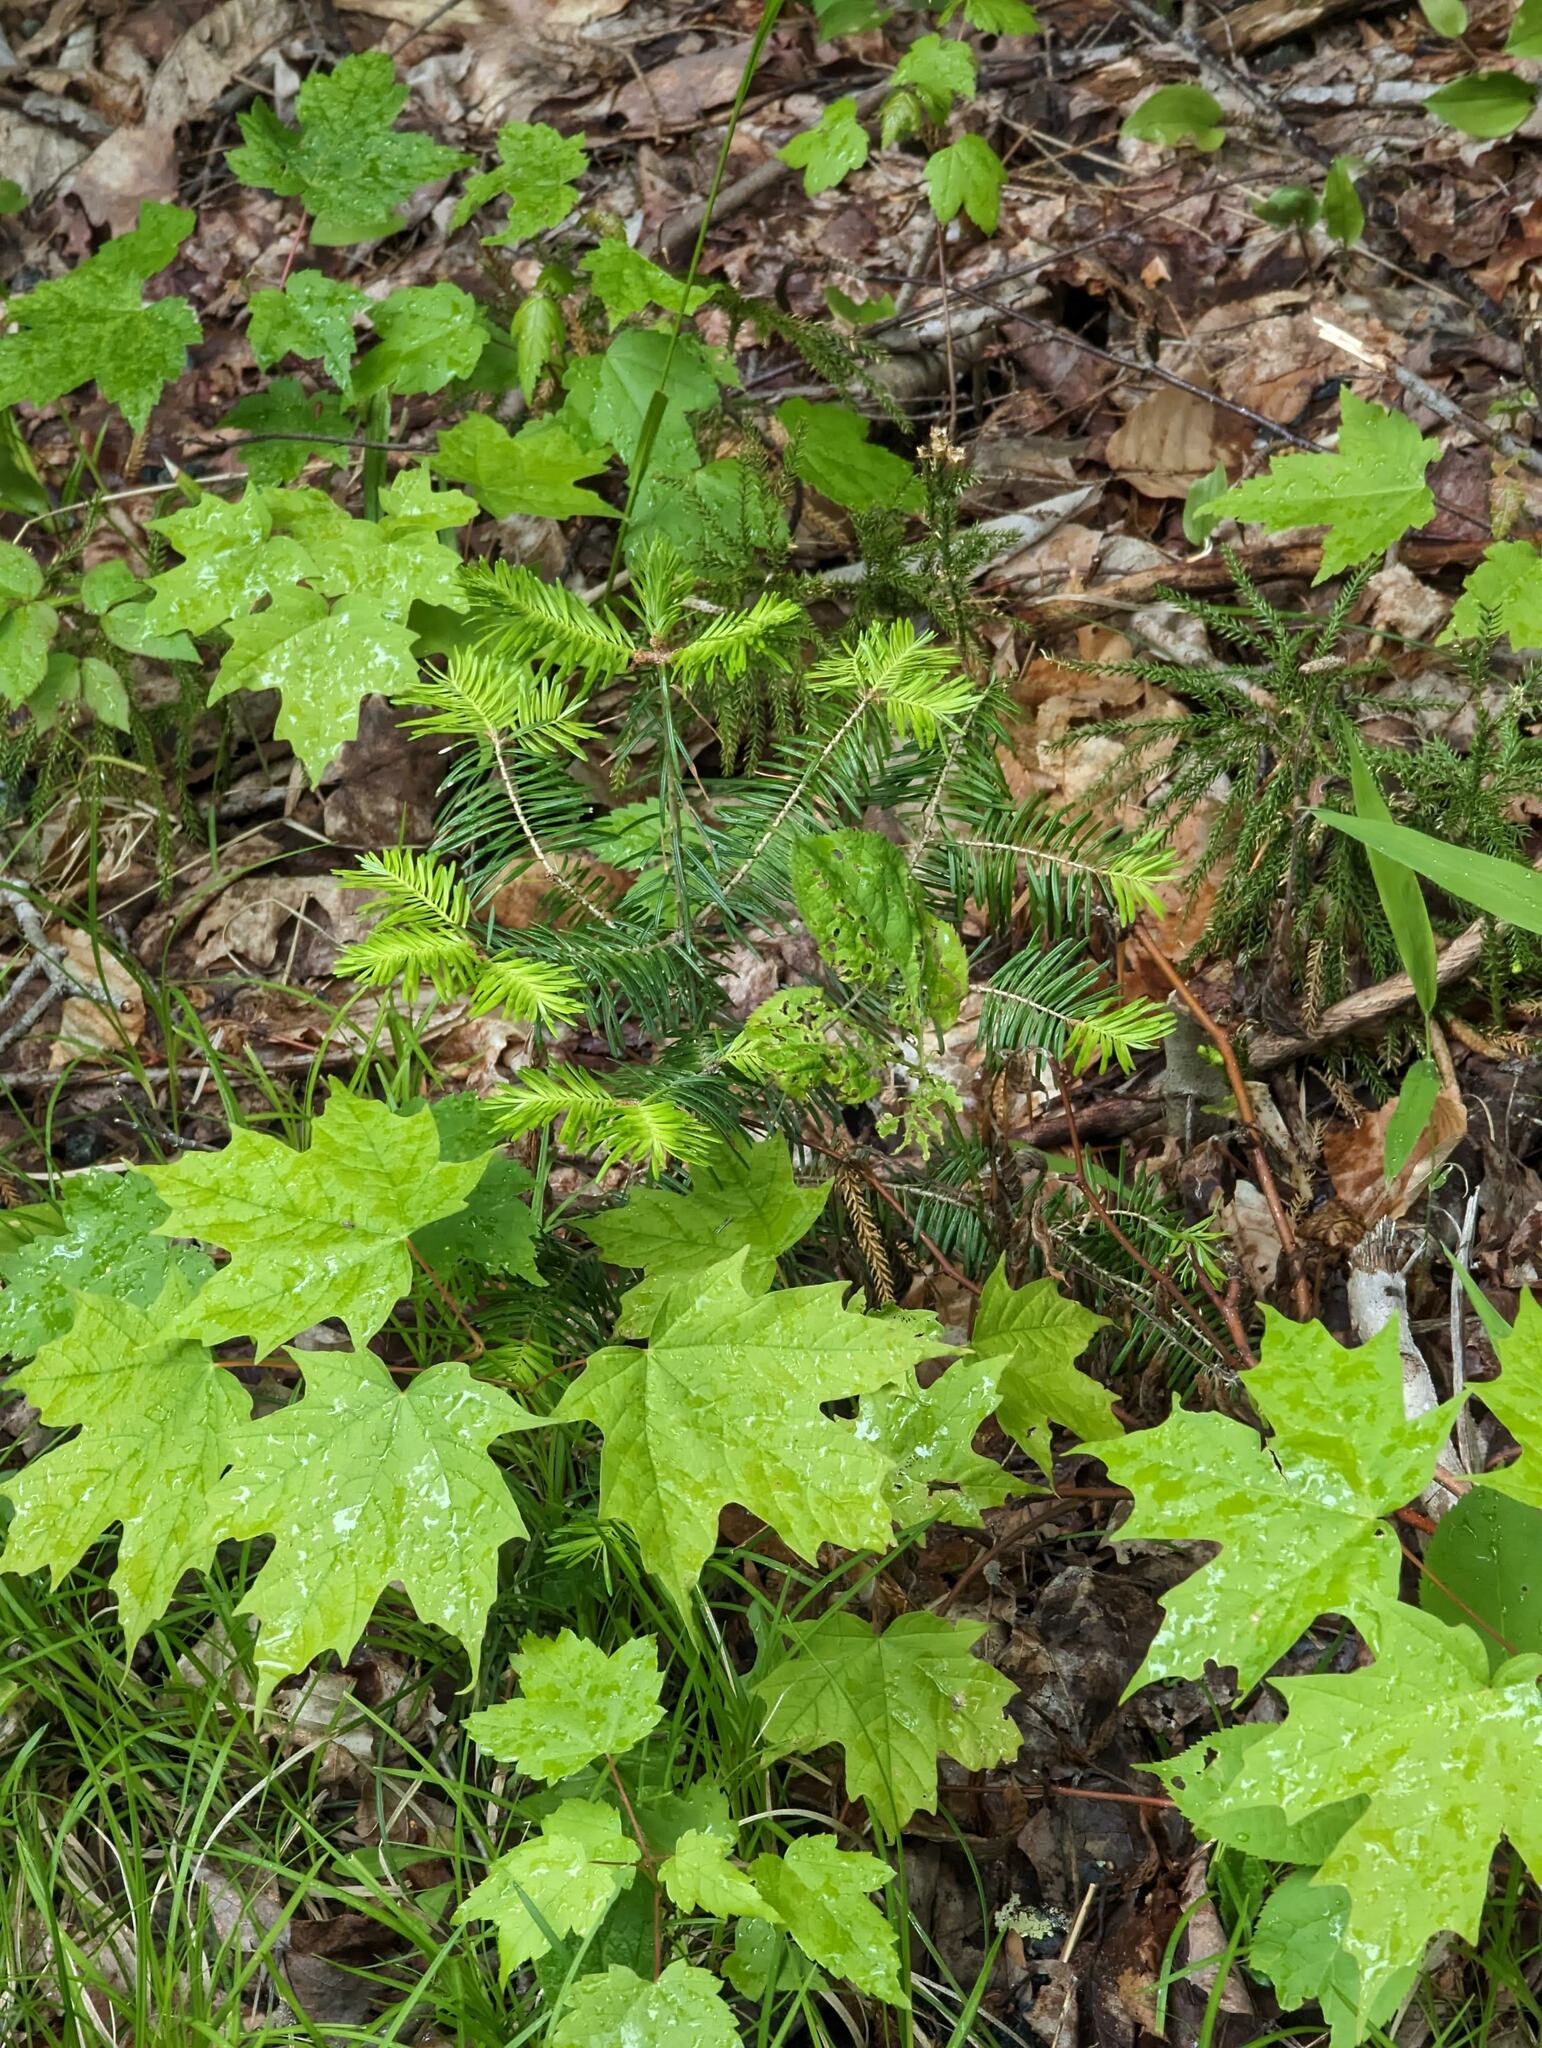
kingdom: Plantae
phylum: Tracheophyta
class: Pinopsida
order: Pinales
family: Pinaceae
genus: Abies
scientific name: Abies balsamea
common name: Balsam fir
